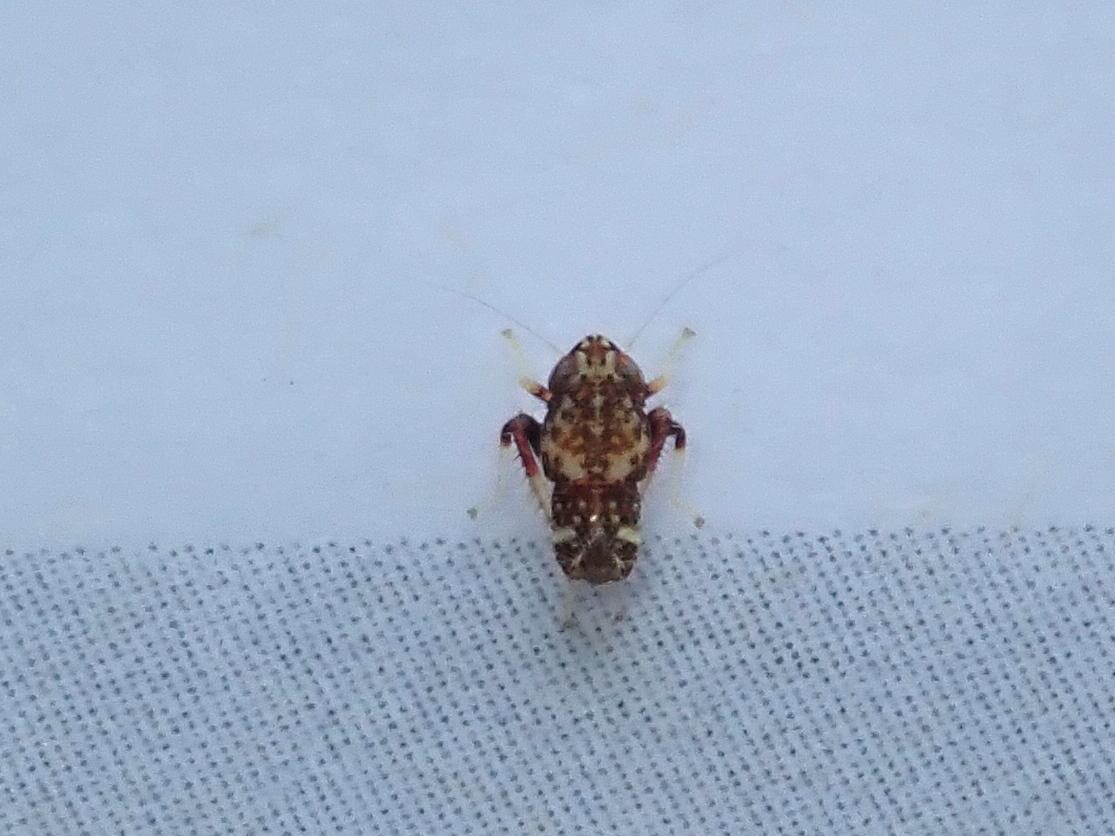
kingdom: Animalia
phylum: Arthropoda
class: Insecta
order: Hemiptera
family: Cicadellidae
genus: Orientus
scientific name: Orientus ishidae
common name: Japanese leafhopper
